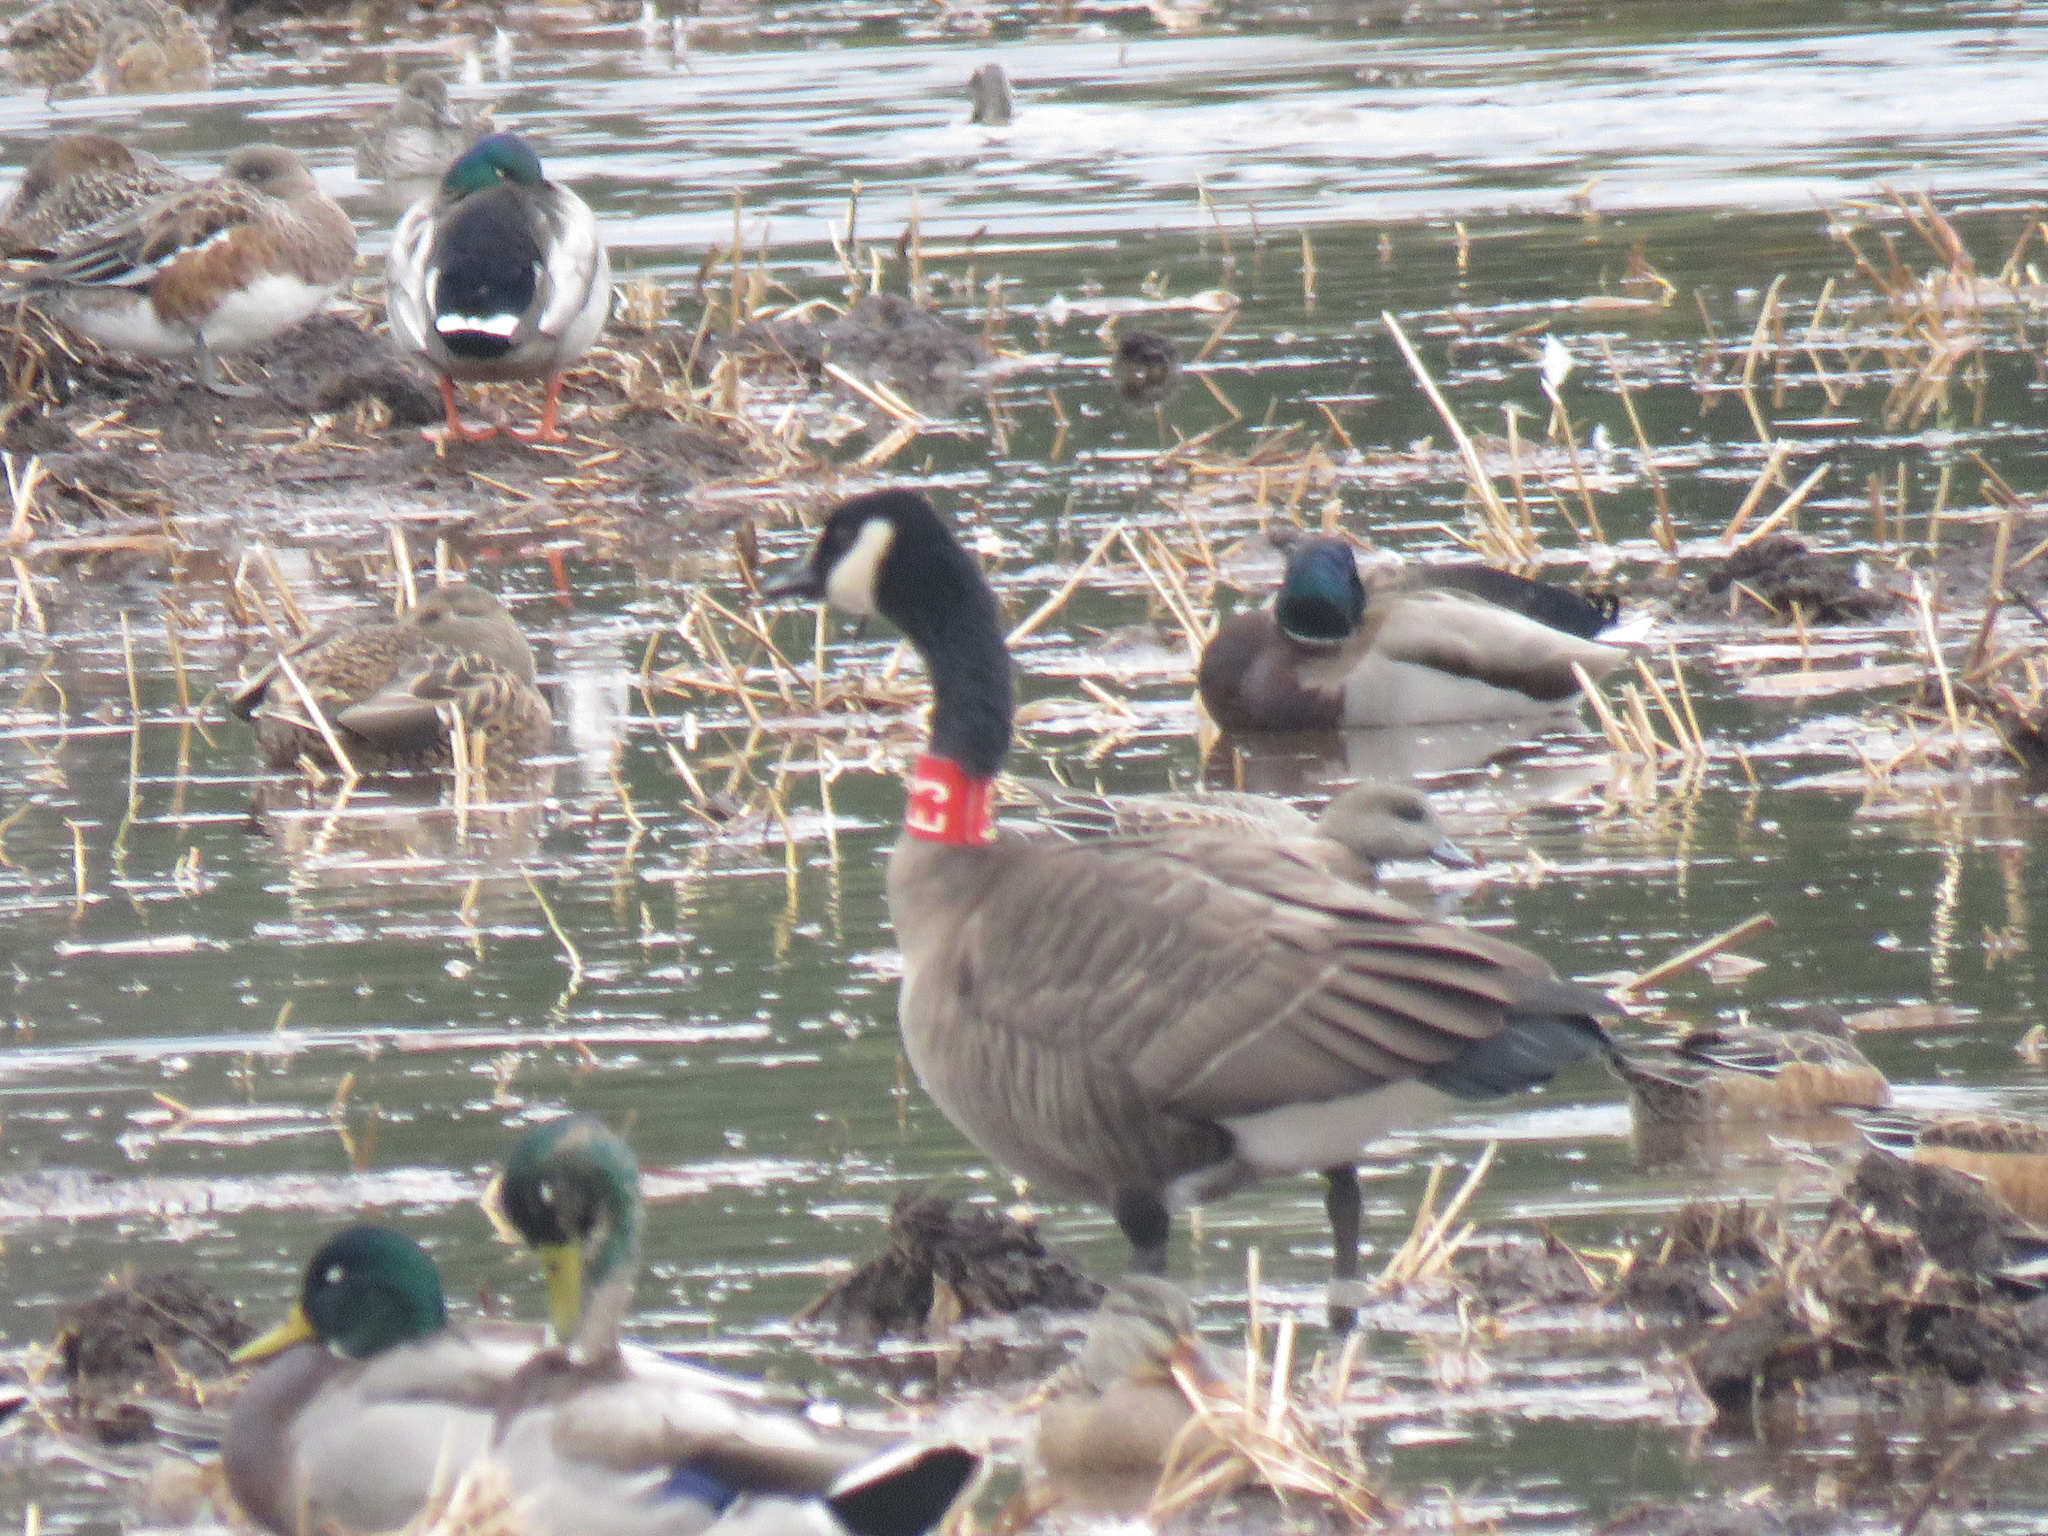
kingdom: Animalia
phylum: Chordata
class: Aves
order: Anseriformes
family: Anatidae
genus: Branta
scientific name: Branta canadensis
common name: Canada goose
